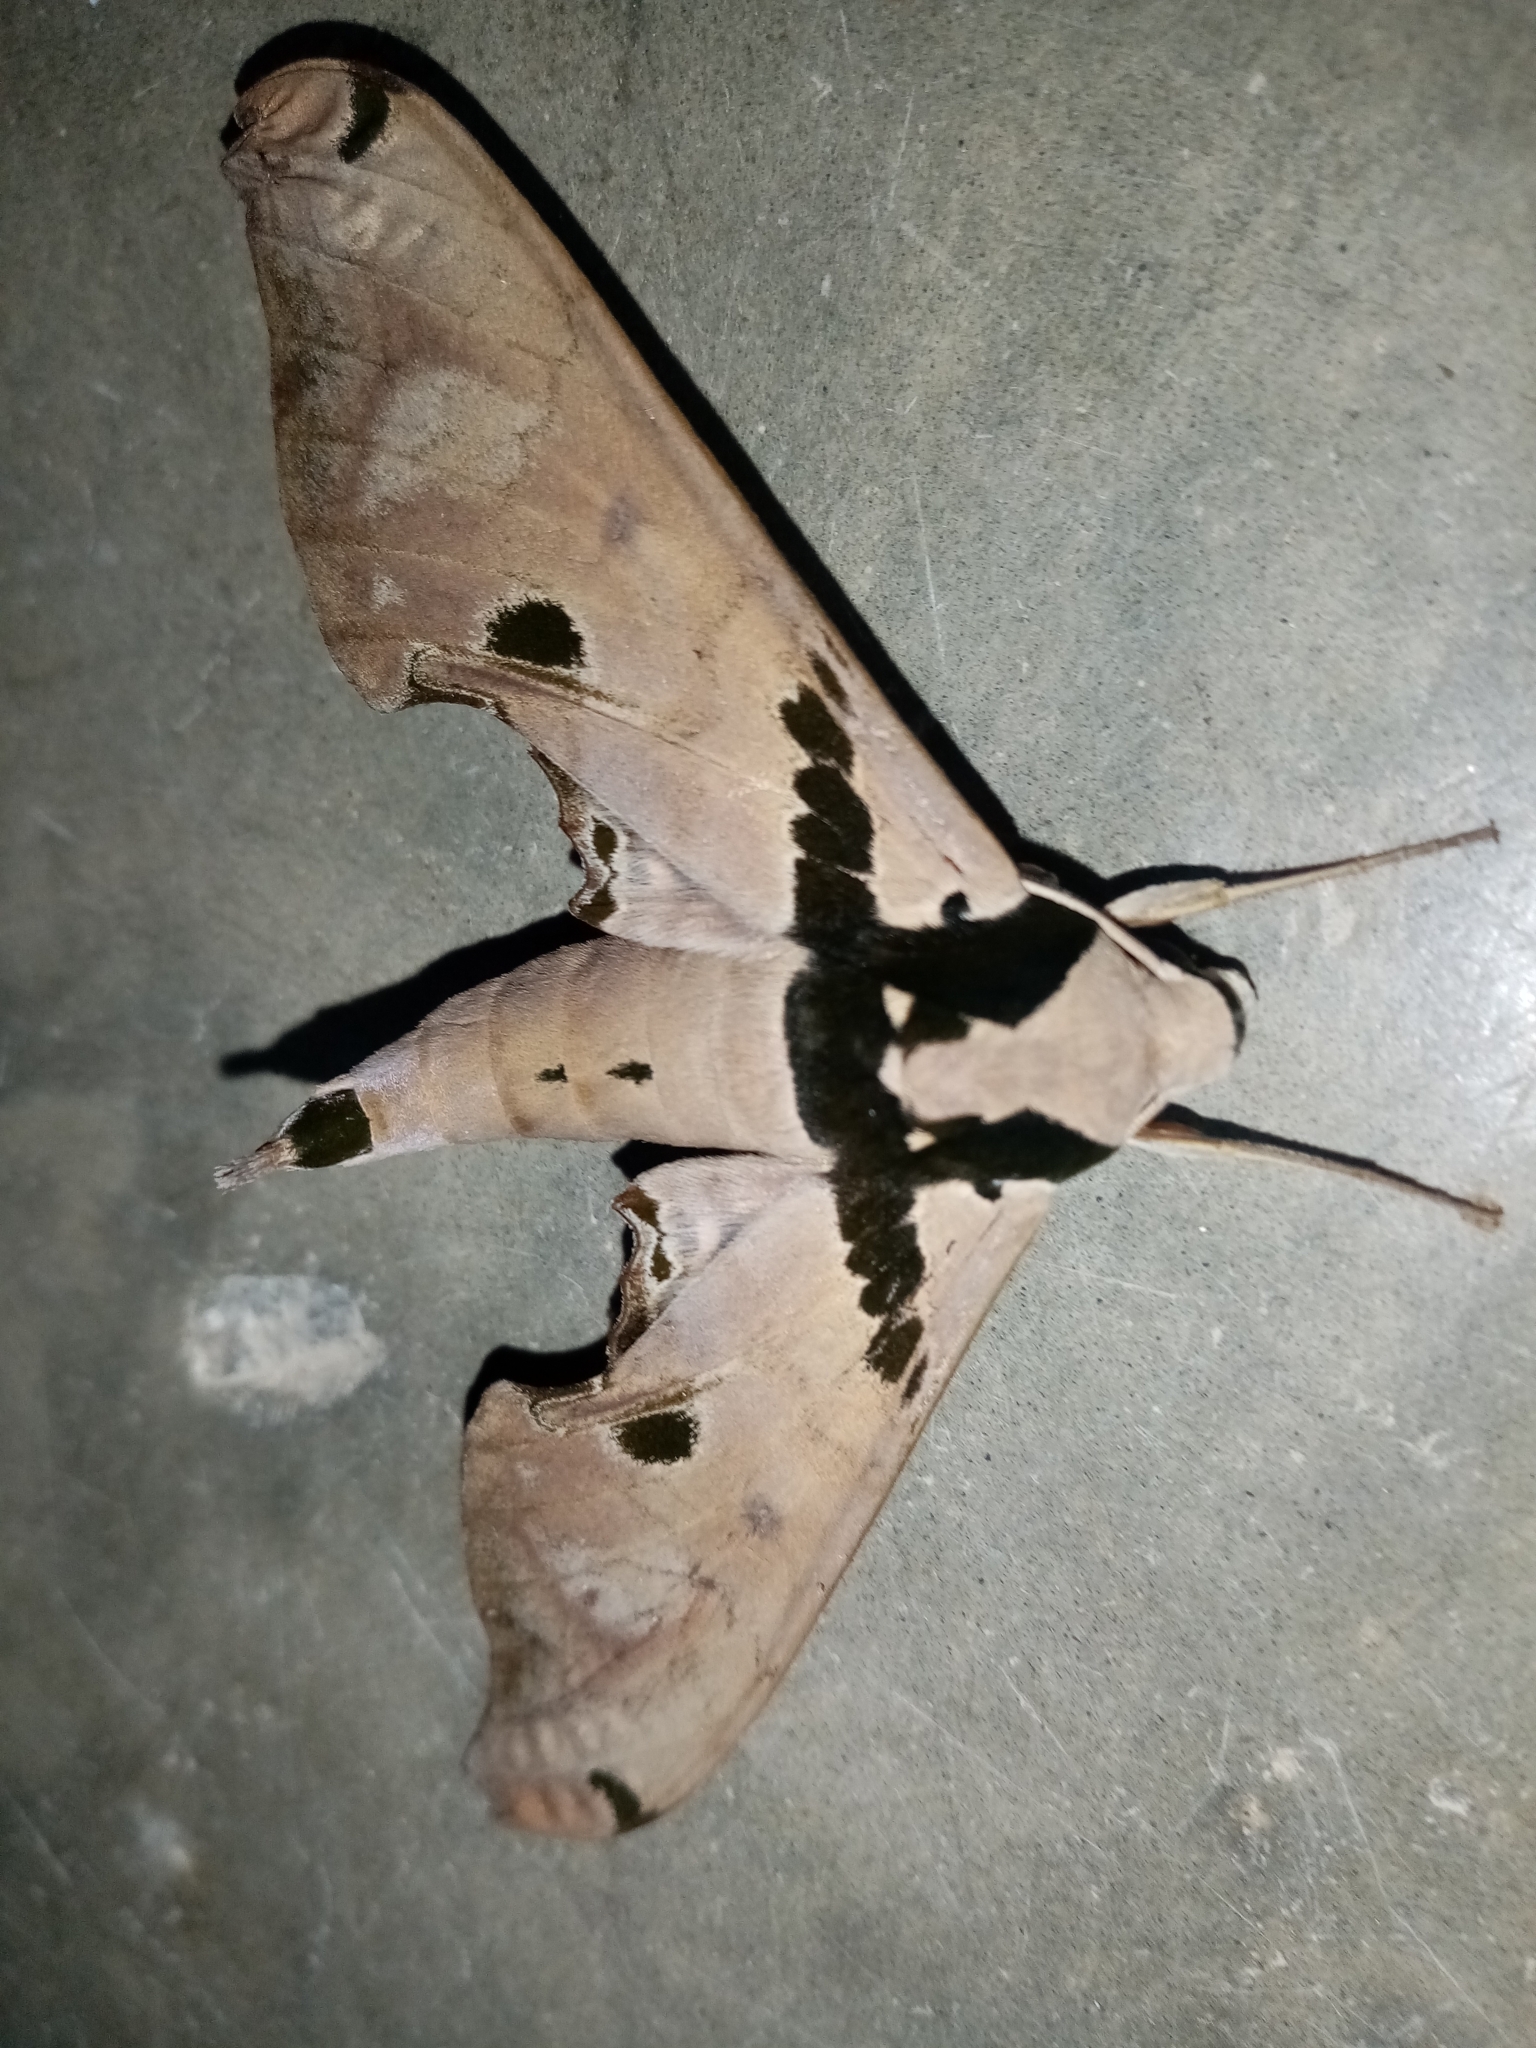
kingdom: Animalia
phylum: Arthropoda
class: Insecta
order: Lepidoptera
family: Sphingidae
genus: Adhemarius
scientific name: Adhemarius gannascus
